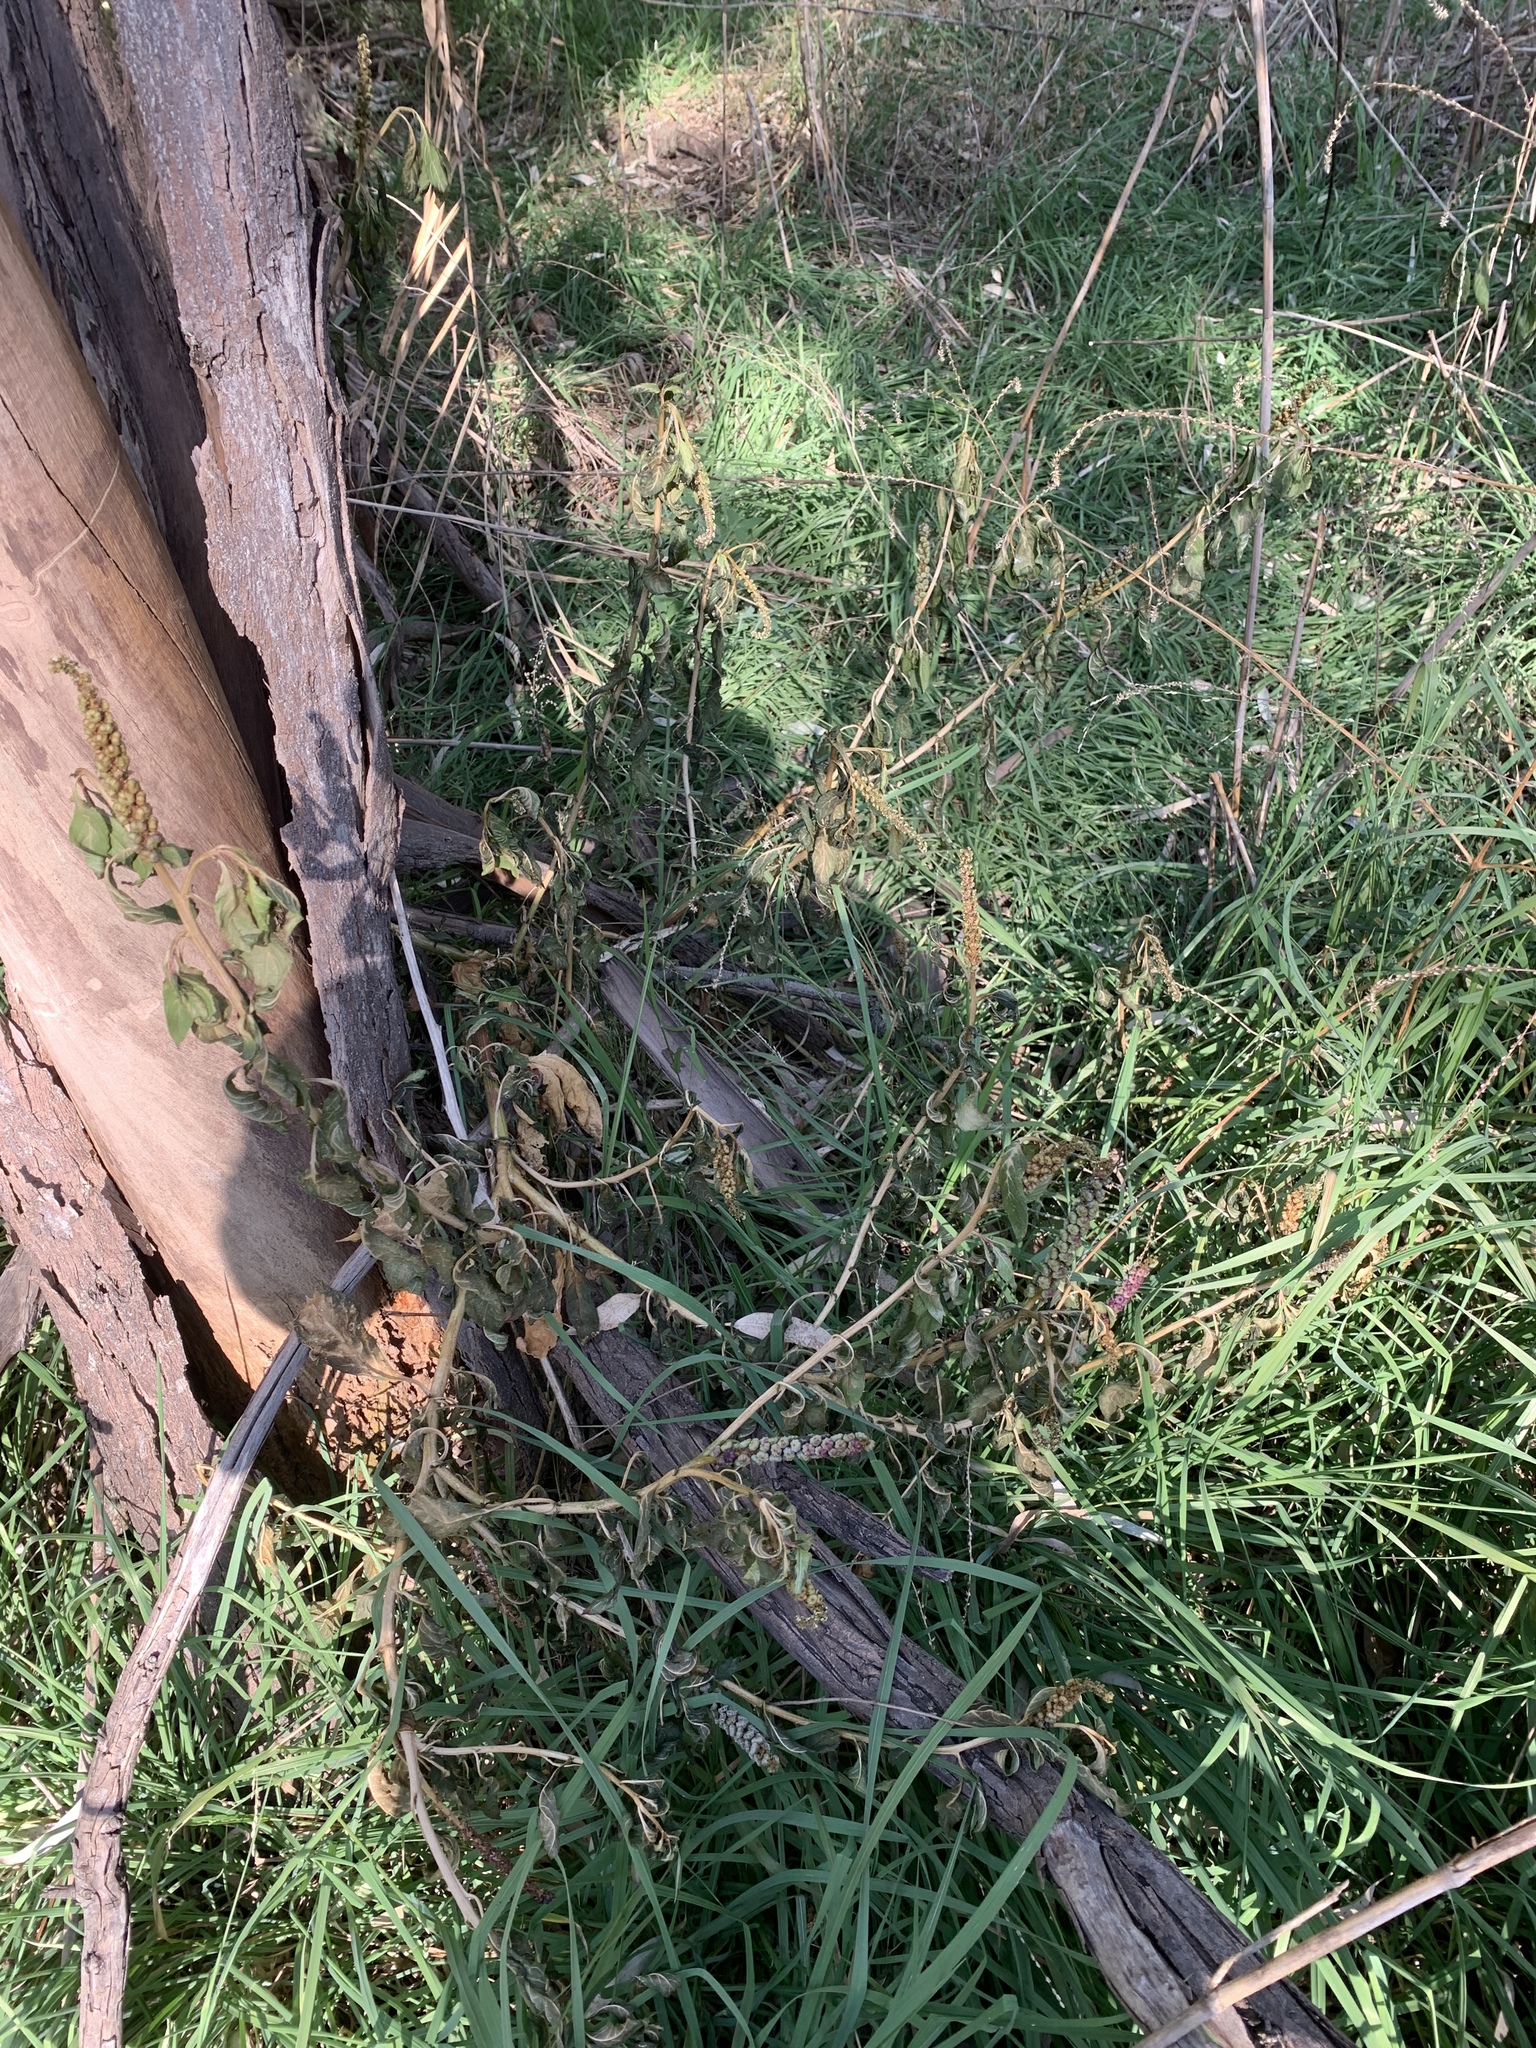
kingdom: Plantae
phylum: Tracheophyta
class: Magnoliopsida
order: Caryophyllales
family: Phytolaccaceae
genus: Phytolacca
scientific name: Phytolacca icosandra
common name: Button pokeweed
